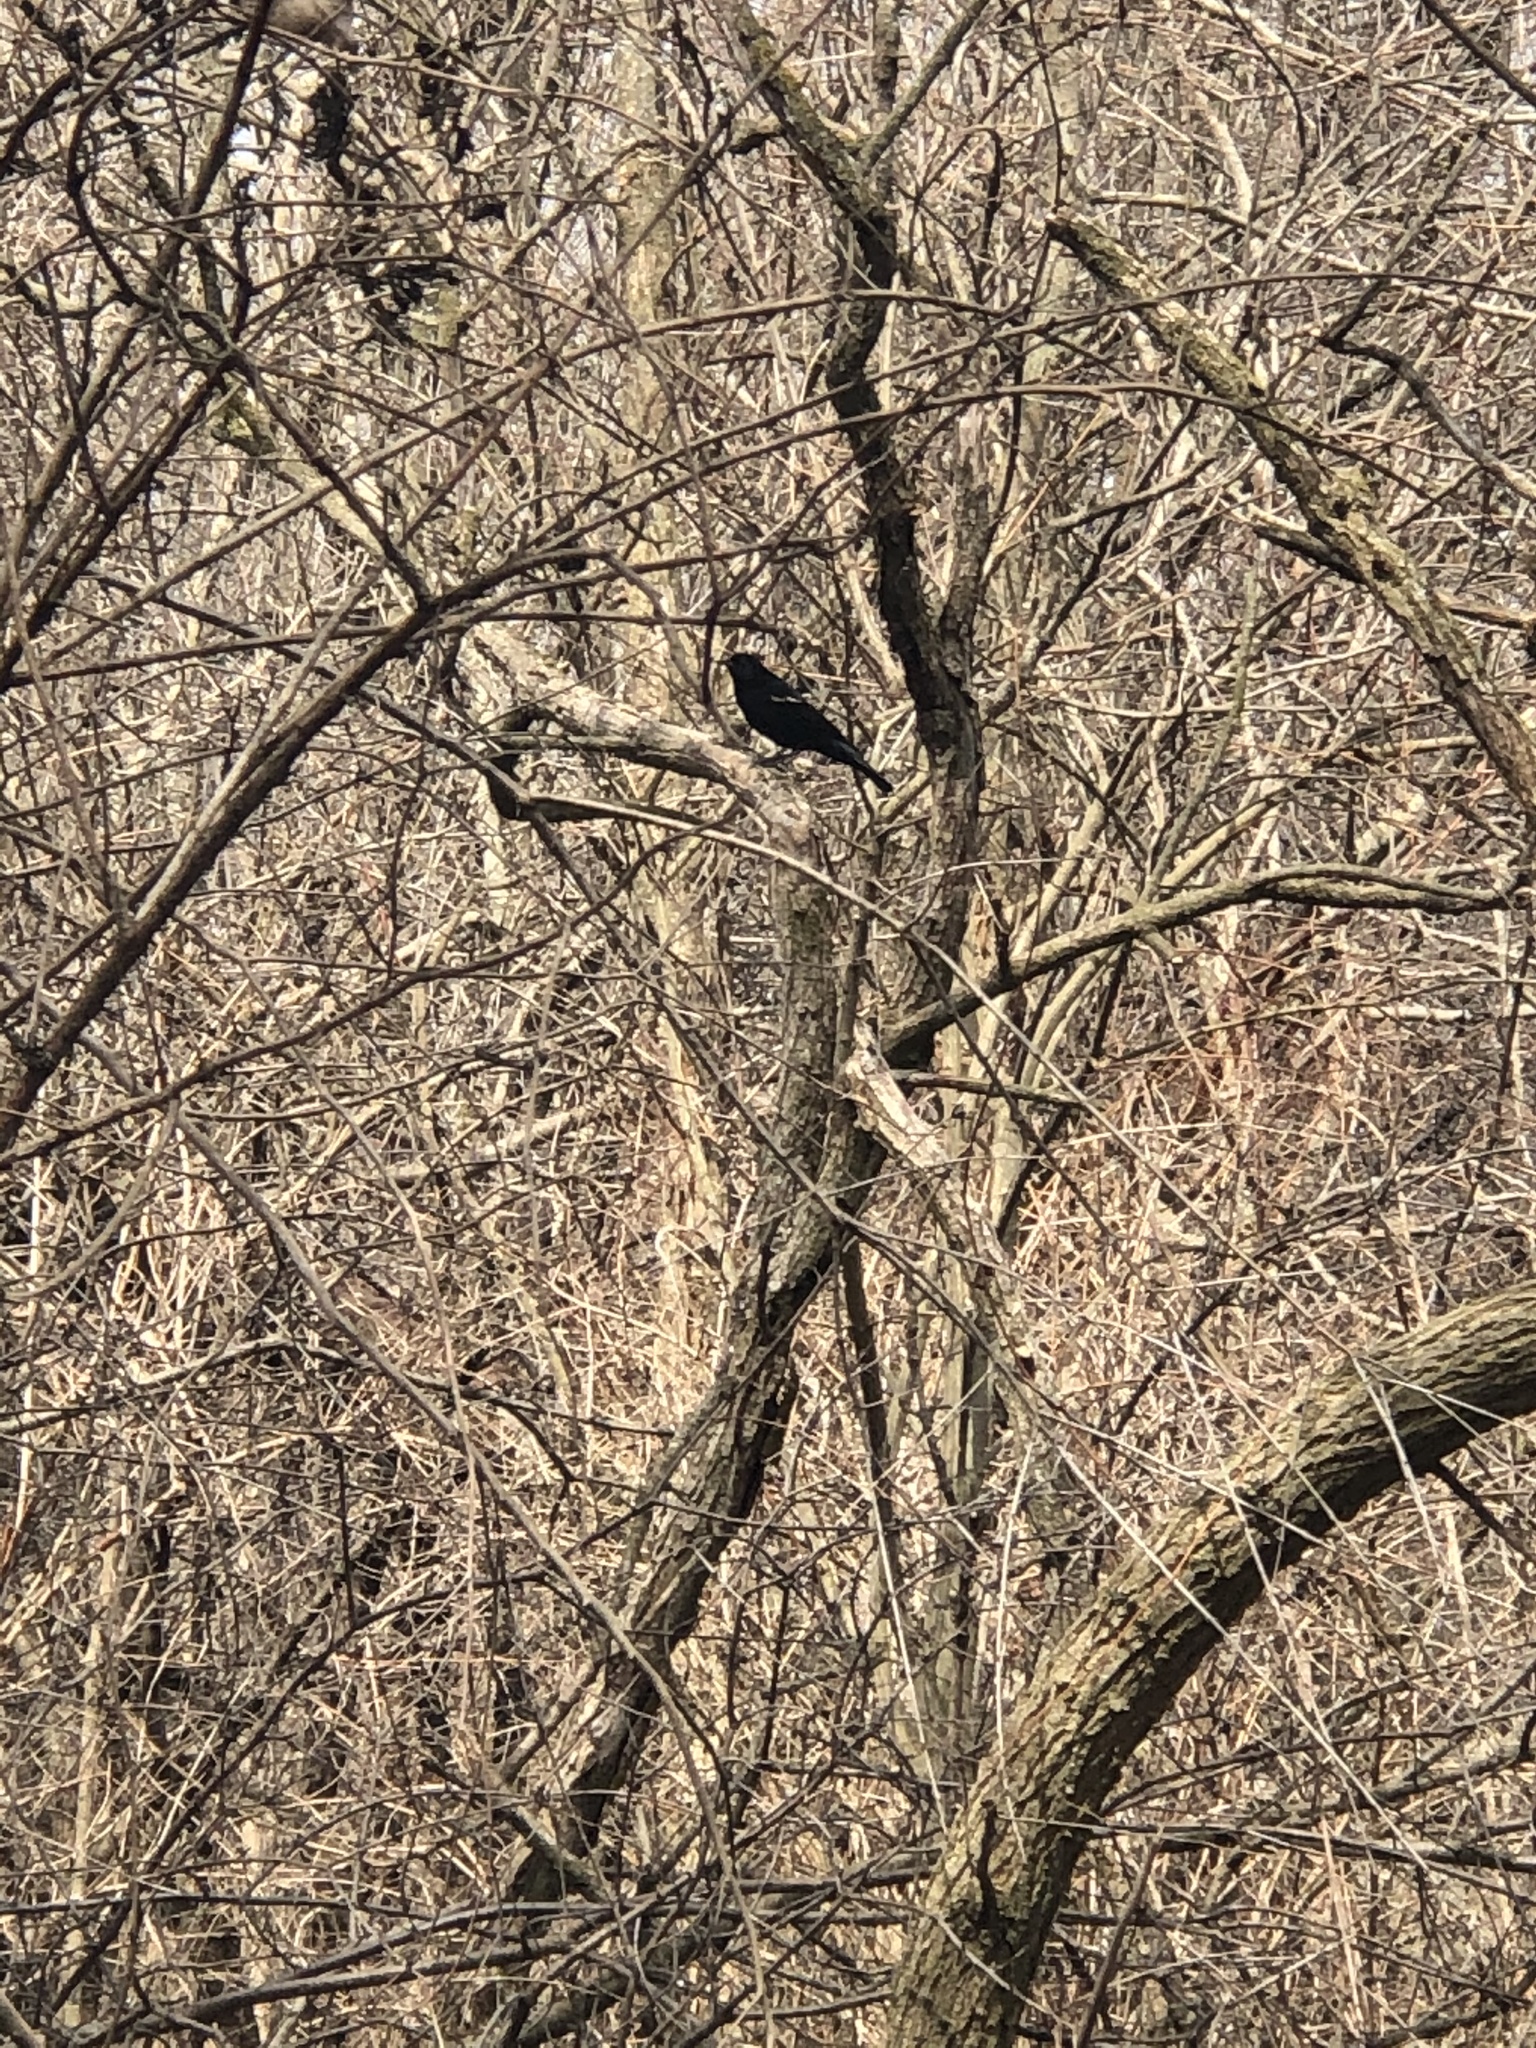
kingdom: Animalia
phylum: Chordata
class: Aves
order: Passeriformes
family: Icteridae
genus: Agelaius
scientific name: Agelaius phoeniceus
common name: Red-winged blackbird
